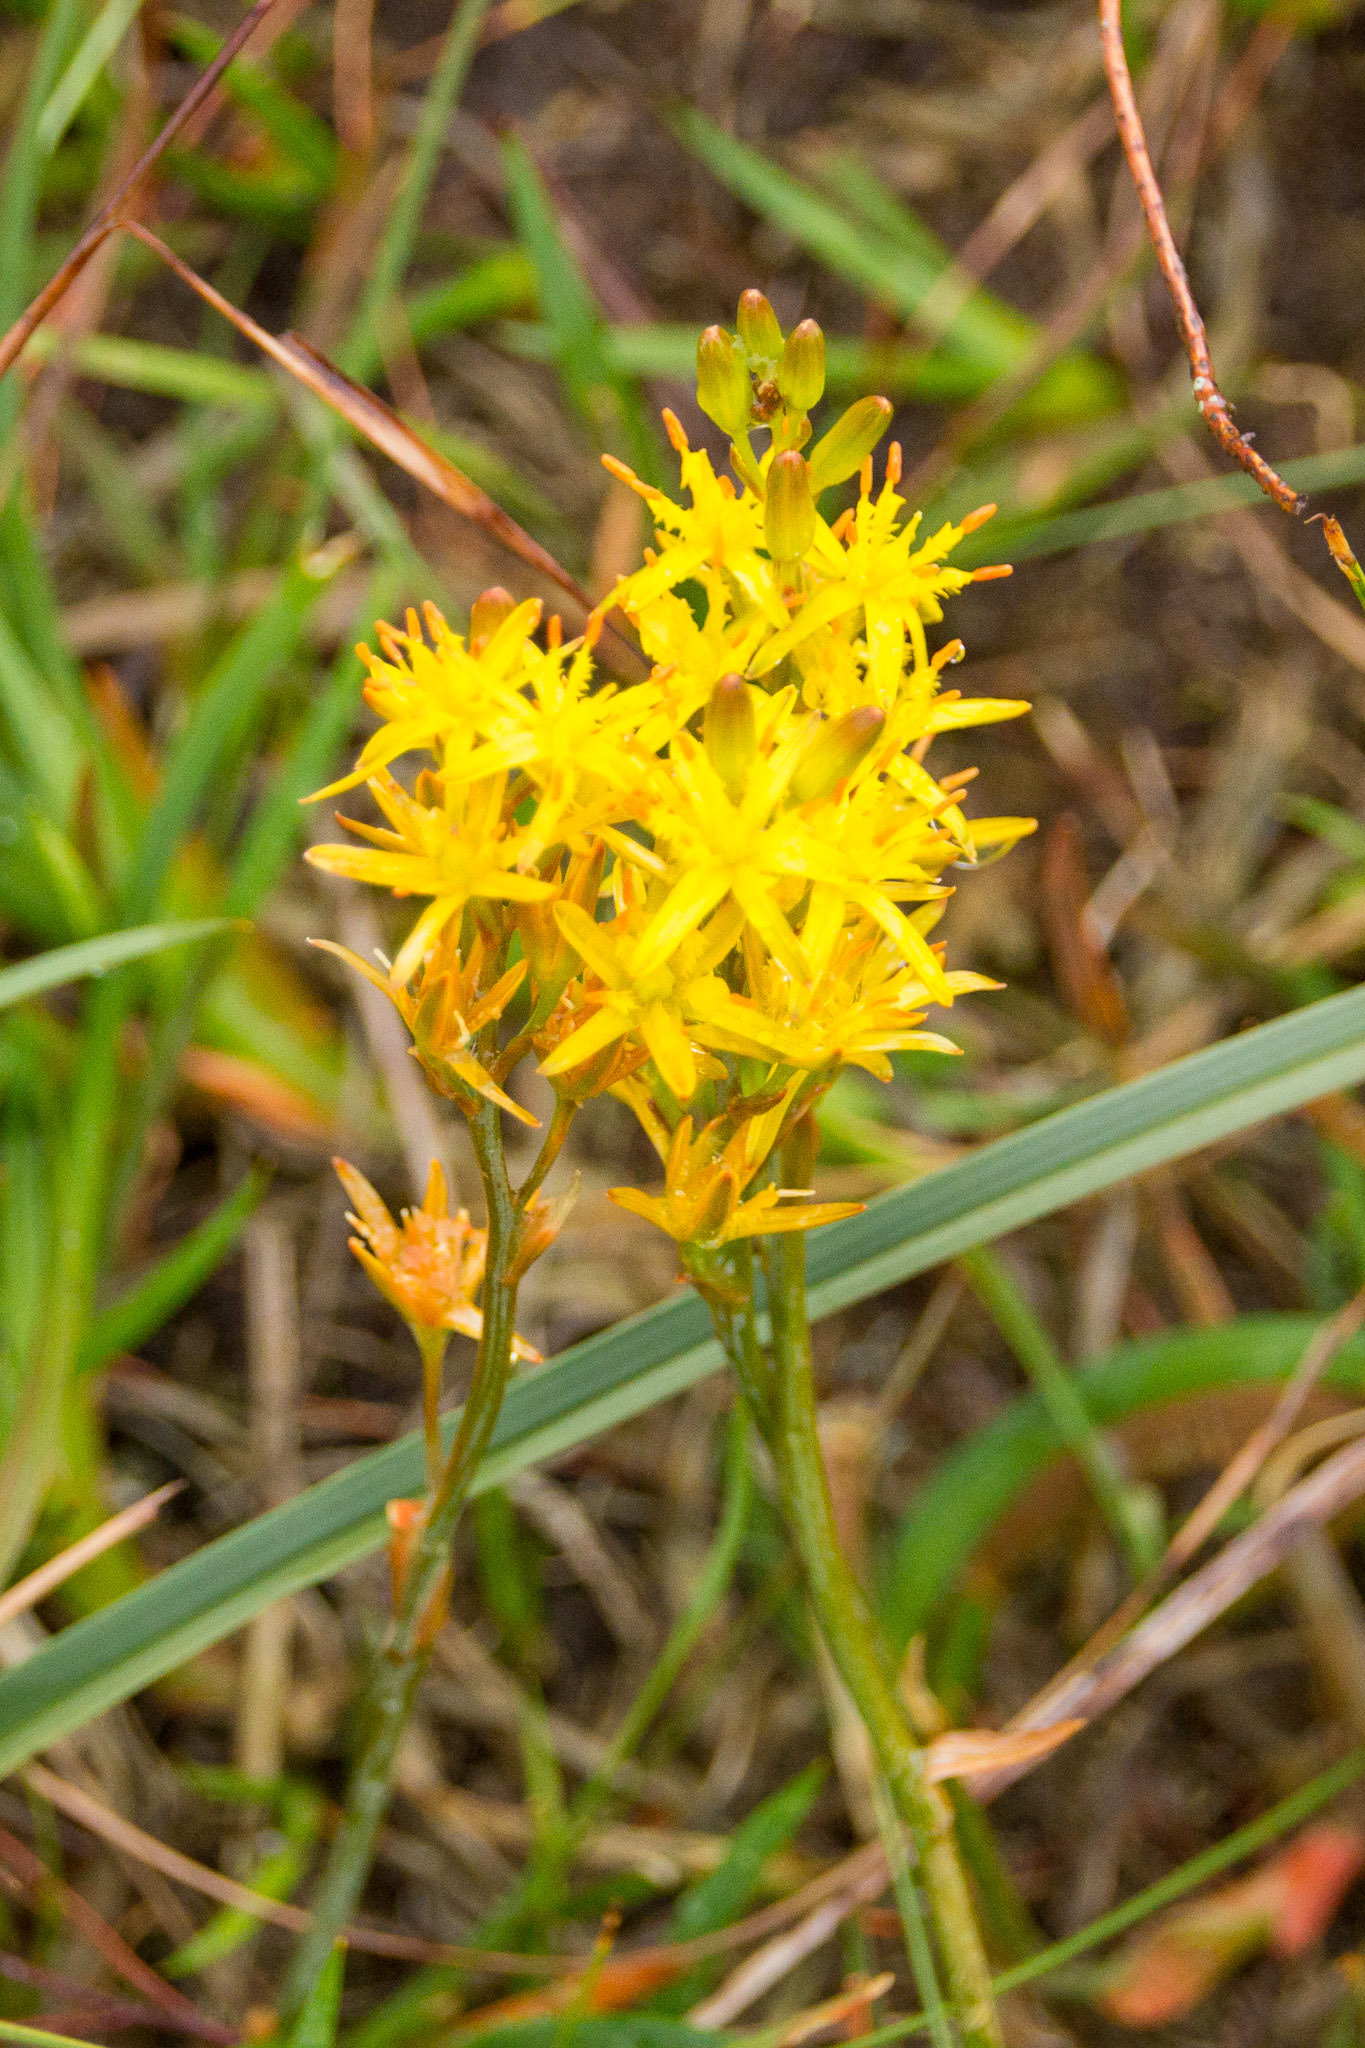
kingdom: Plantae
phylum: Tracheophyta
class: Liliopsida
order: Dioscoreales
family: Nartheciaceae
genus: Narthecium
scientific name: Narthecium ossifragum
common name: Bog asphodel
